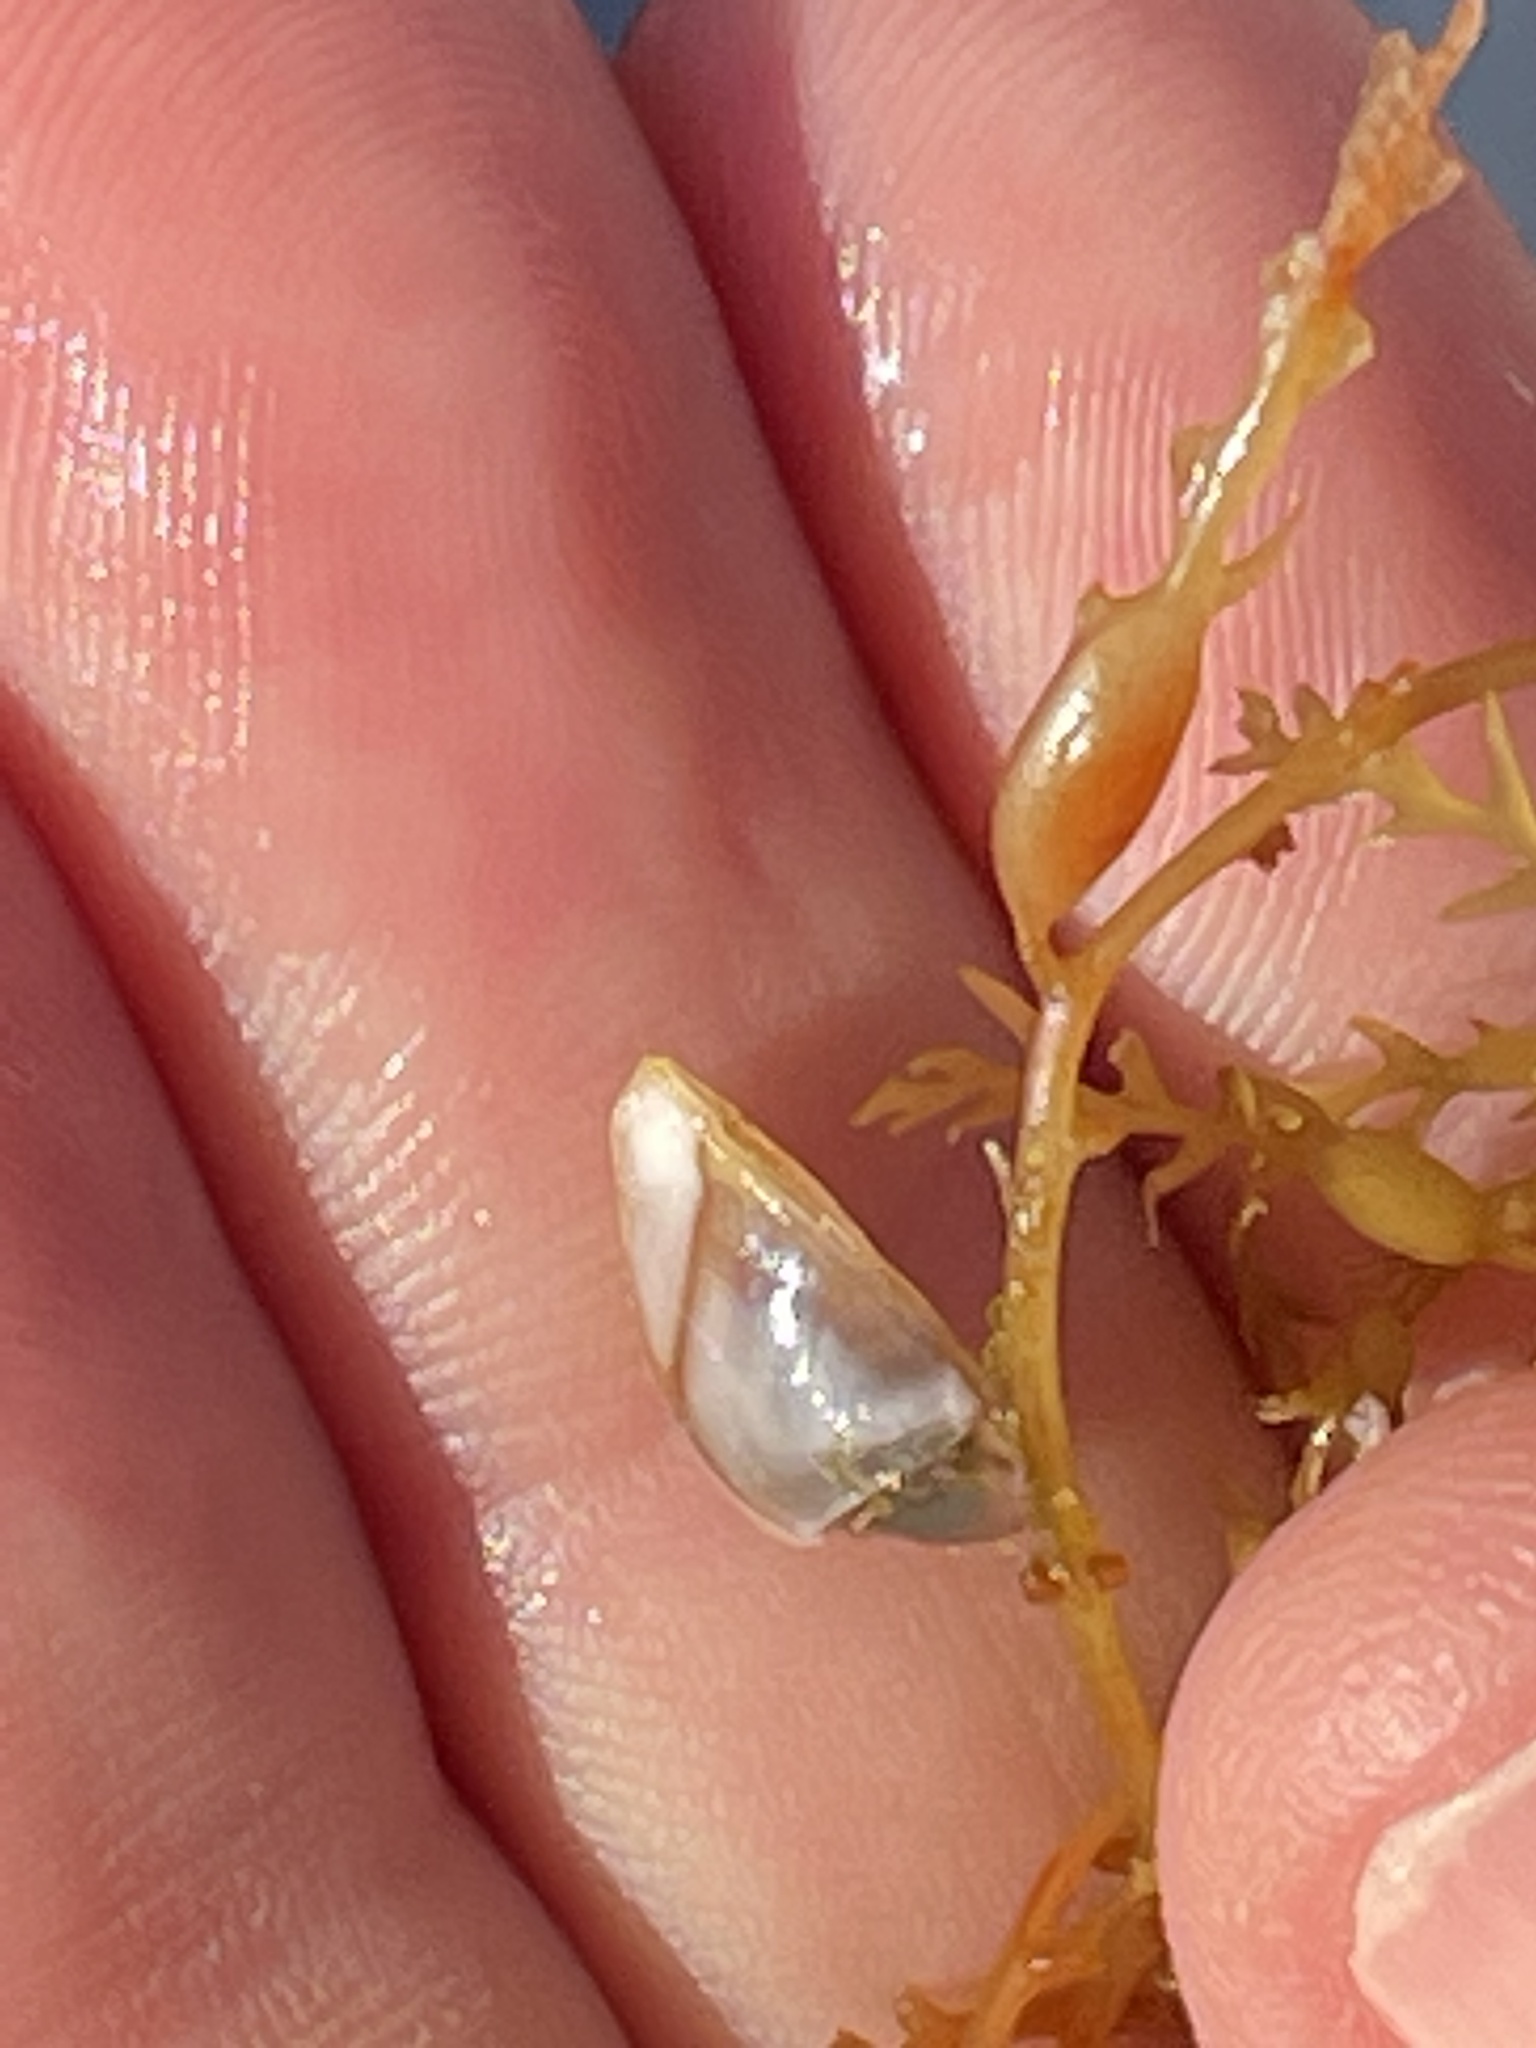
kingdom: Animalia
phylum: Arthropoda
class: Maxillopoda
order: Pedunculata
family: Lepadidae
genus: Lepas
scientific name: Lepas pacifica
